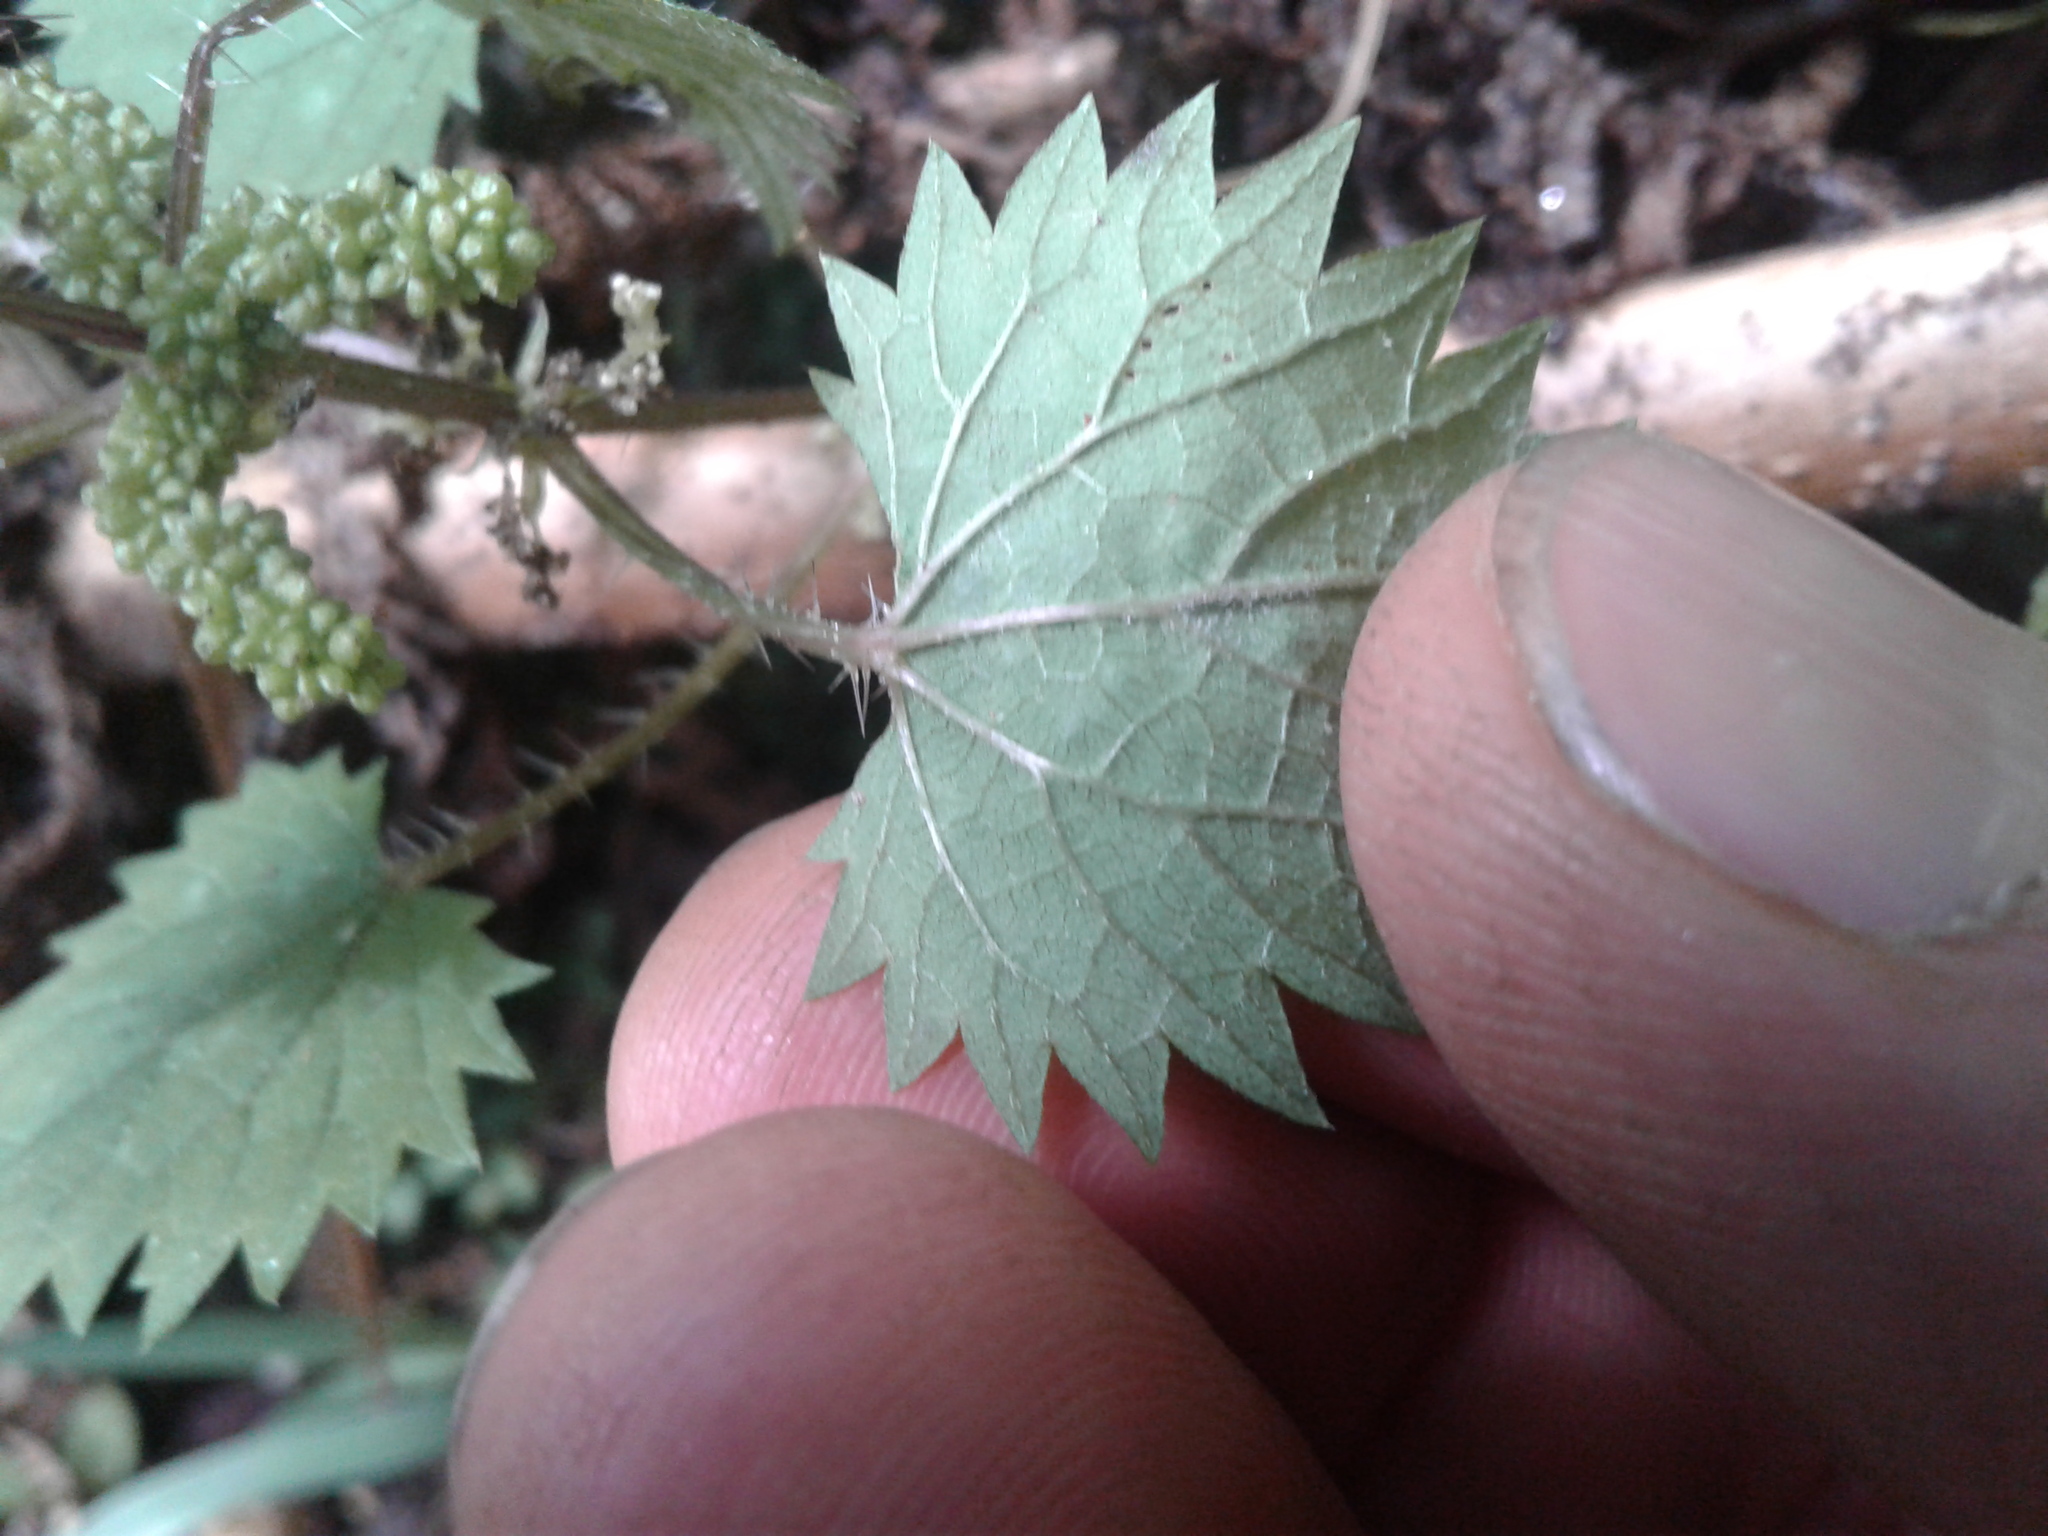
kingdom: Plantae
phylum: Tracheophyta
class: Magnoliopsida
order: Rosales
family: Urticaceae
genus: Urtica
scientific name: Urtica sykesii
